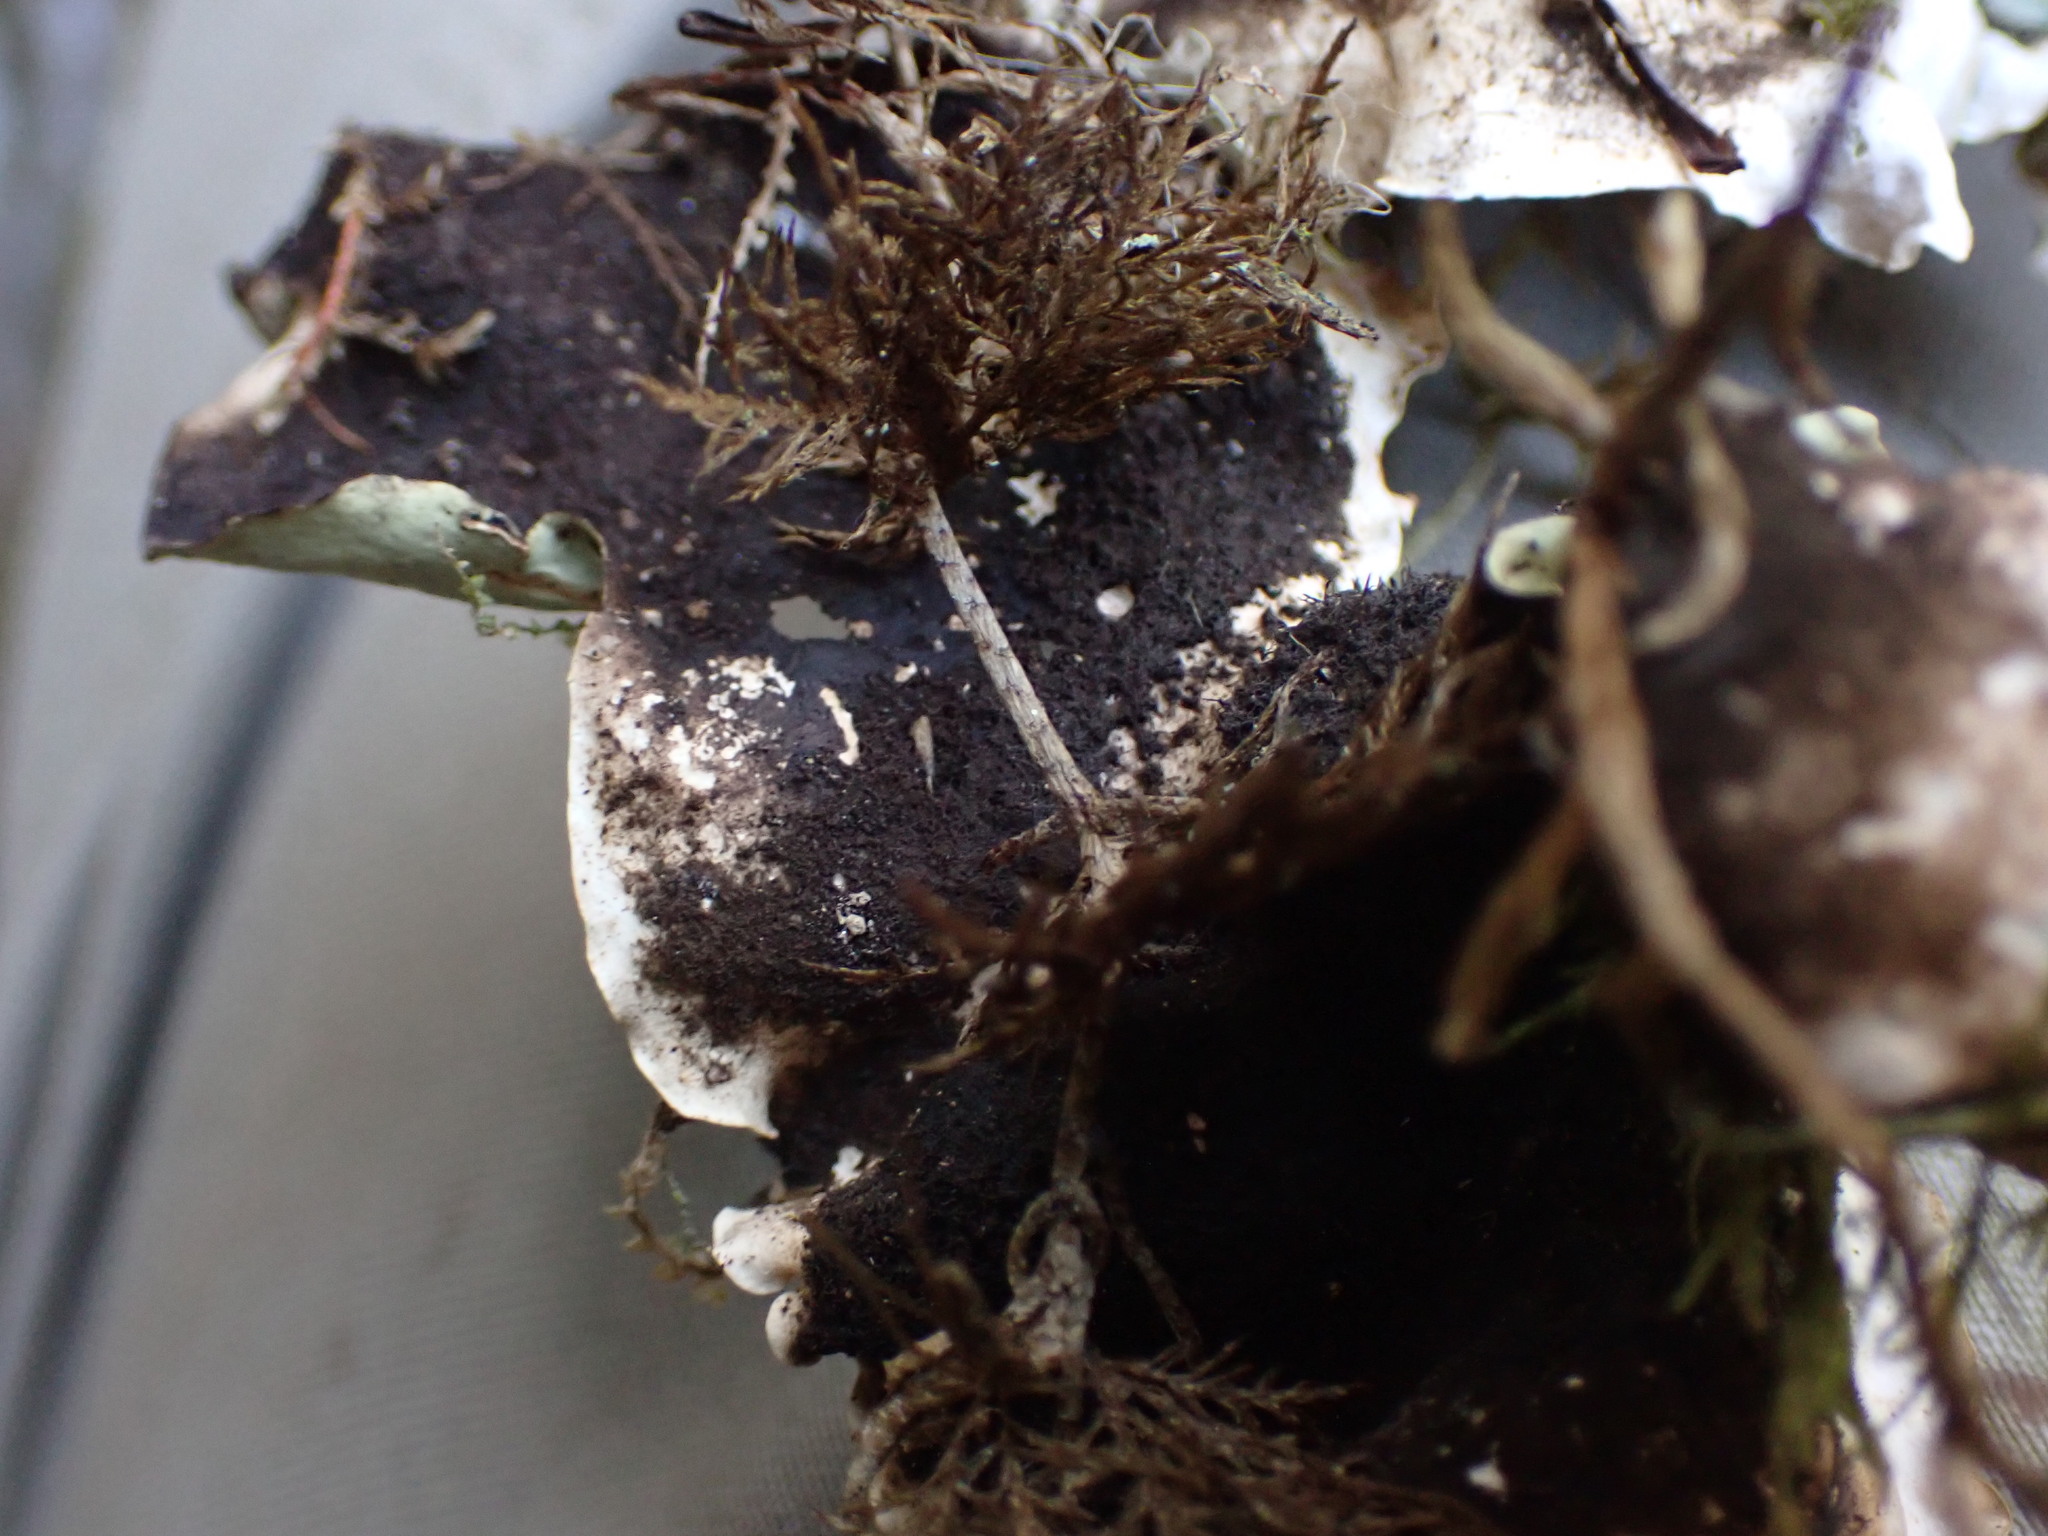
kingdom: Fungi
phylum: Ascomycota
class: Lecanoromycetes
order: Peltigerales
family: Nephromataceae
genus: Nephroma
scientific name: Nephroma arcticum
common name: Arctic kidney-lichen
